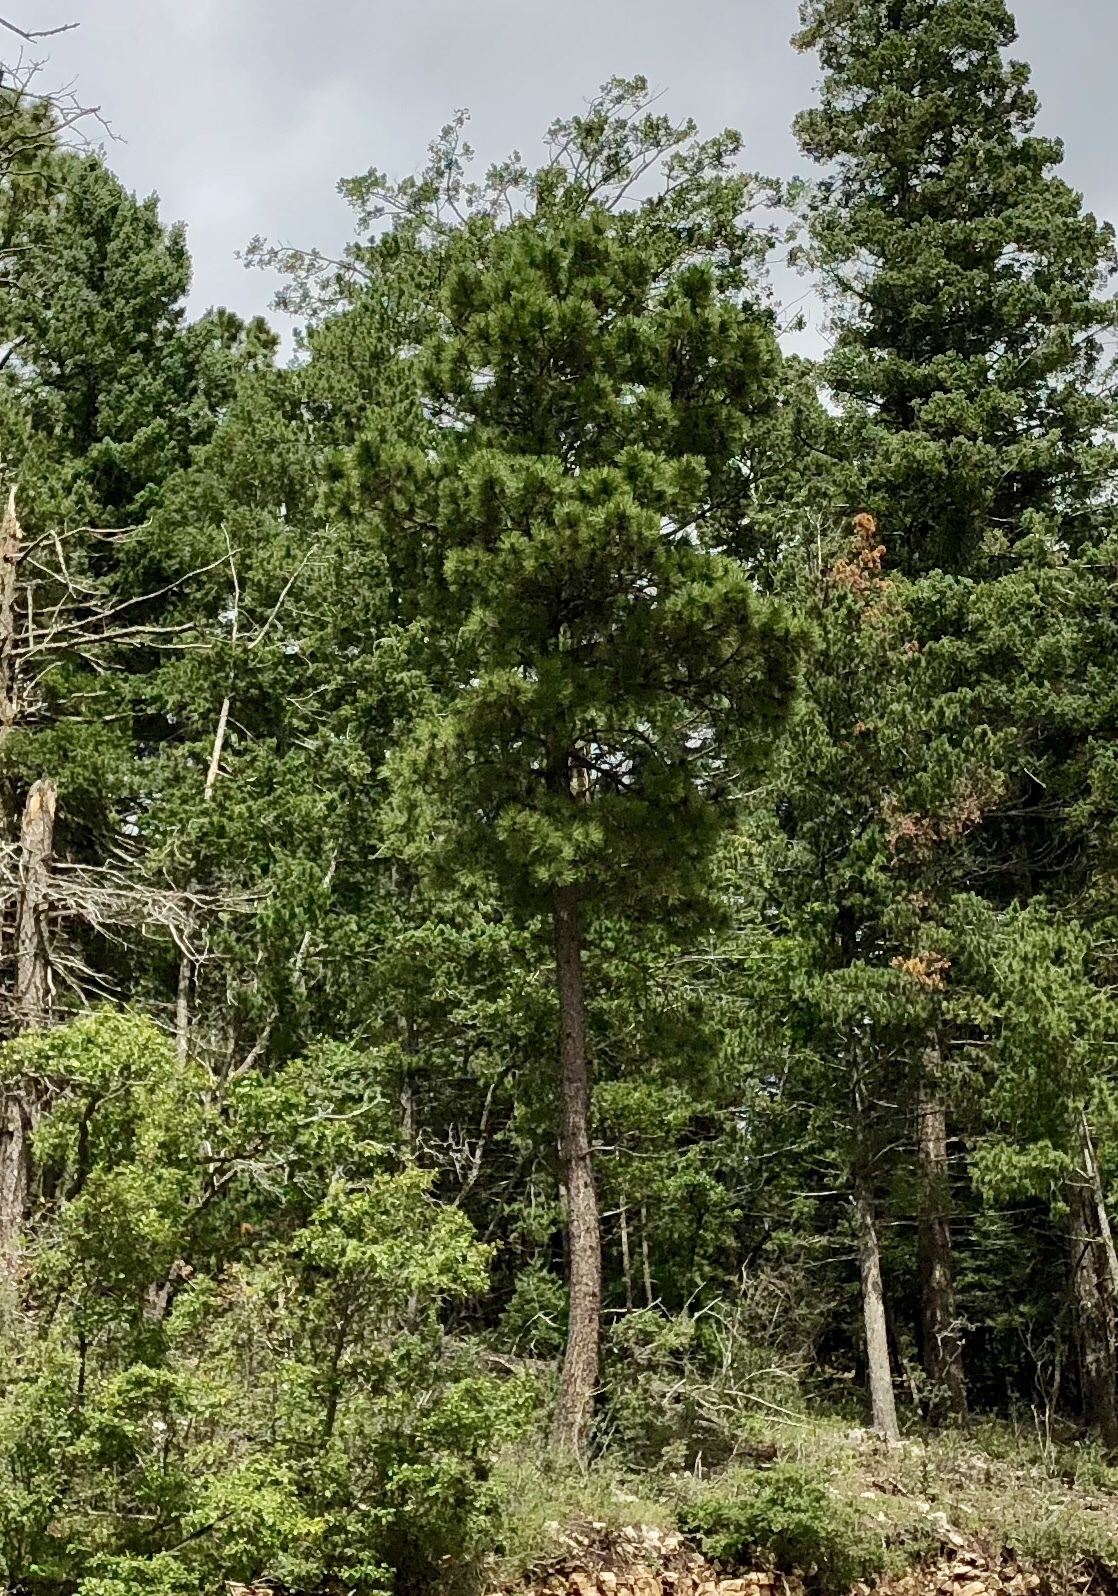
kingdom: Plantae
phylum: Tracheophyta
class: Pinopsida
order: Pinales
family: Pinaceae
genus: Pinus
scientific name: Pinus ponderosa
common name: Western yellow-pine
